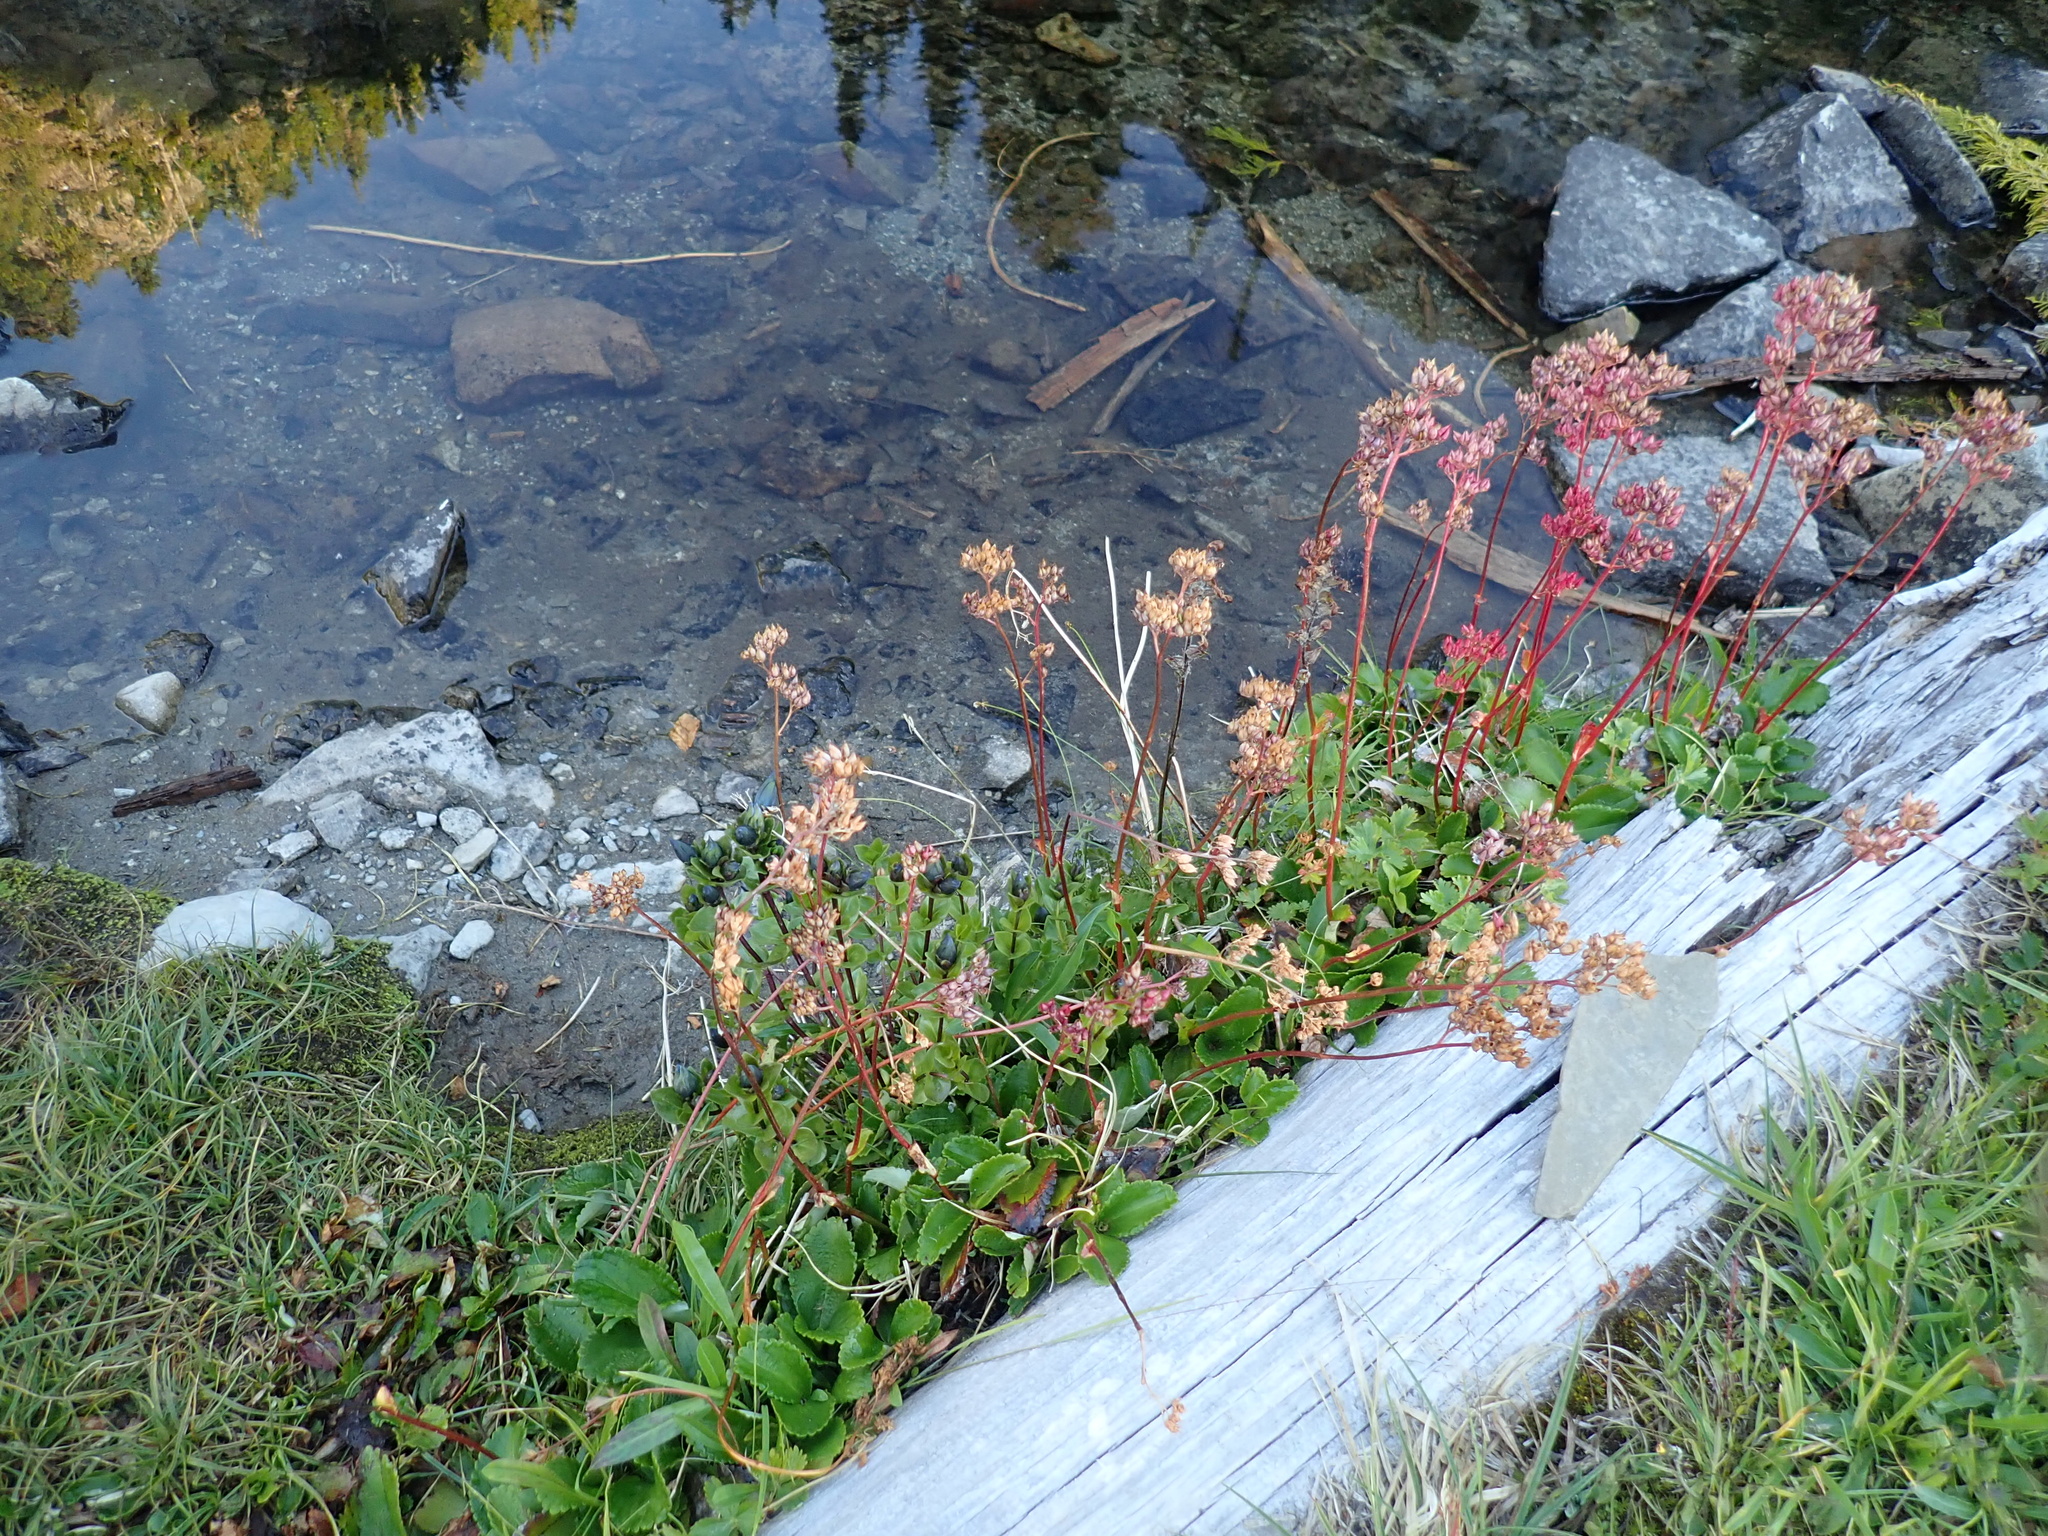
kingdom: Plantae
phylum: Tracheophyta
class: Magnoliopsida
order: Saxifragales
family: Saxifragaceae
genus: Leptarrhena
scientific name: Leptarrhena pyrolifolia
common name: Leatherleaf-saxifrage
